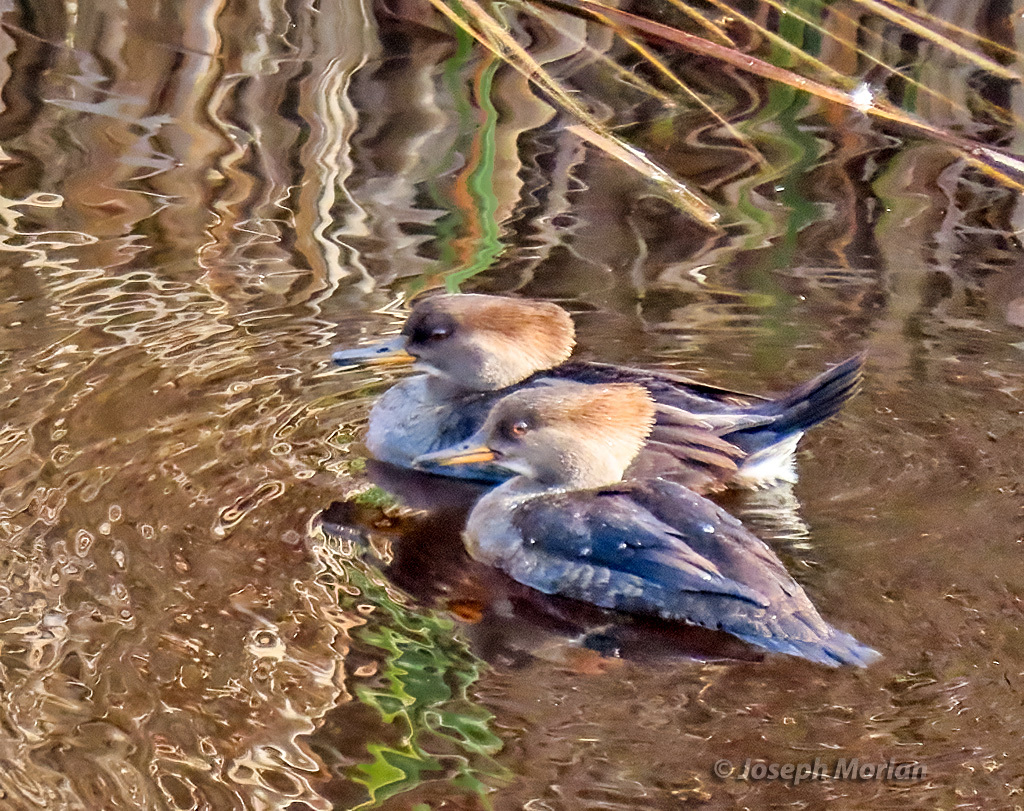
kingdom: Animalia
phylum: Chordata
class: Aves
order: Anseriformes
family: Anatidae
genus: Lophodytes
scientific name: Lophodytes cucullatus
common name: Hooded merganser
